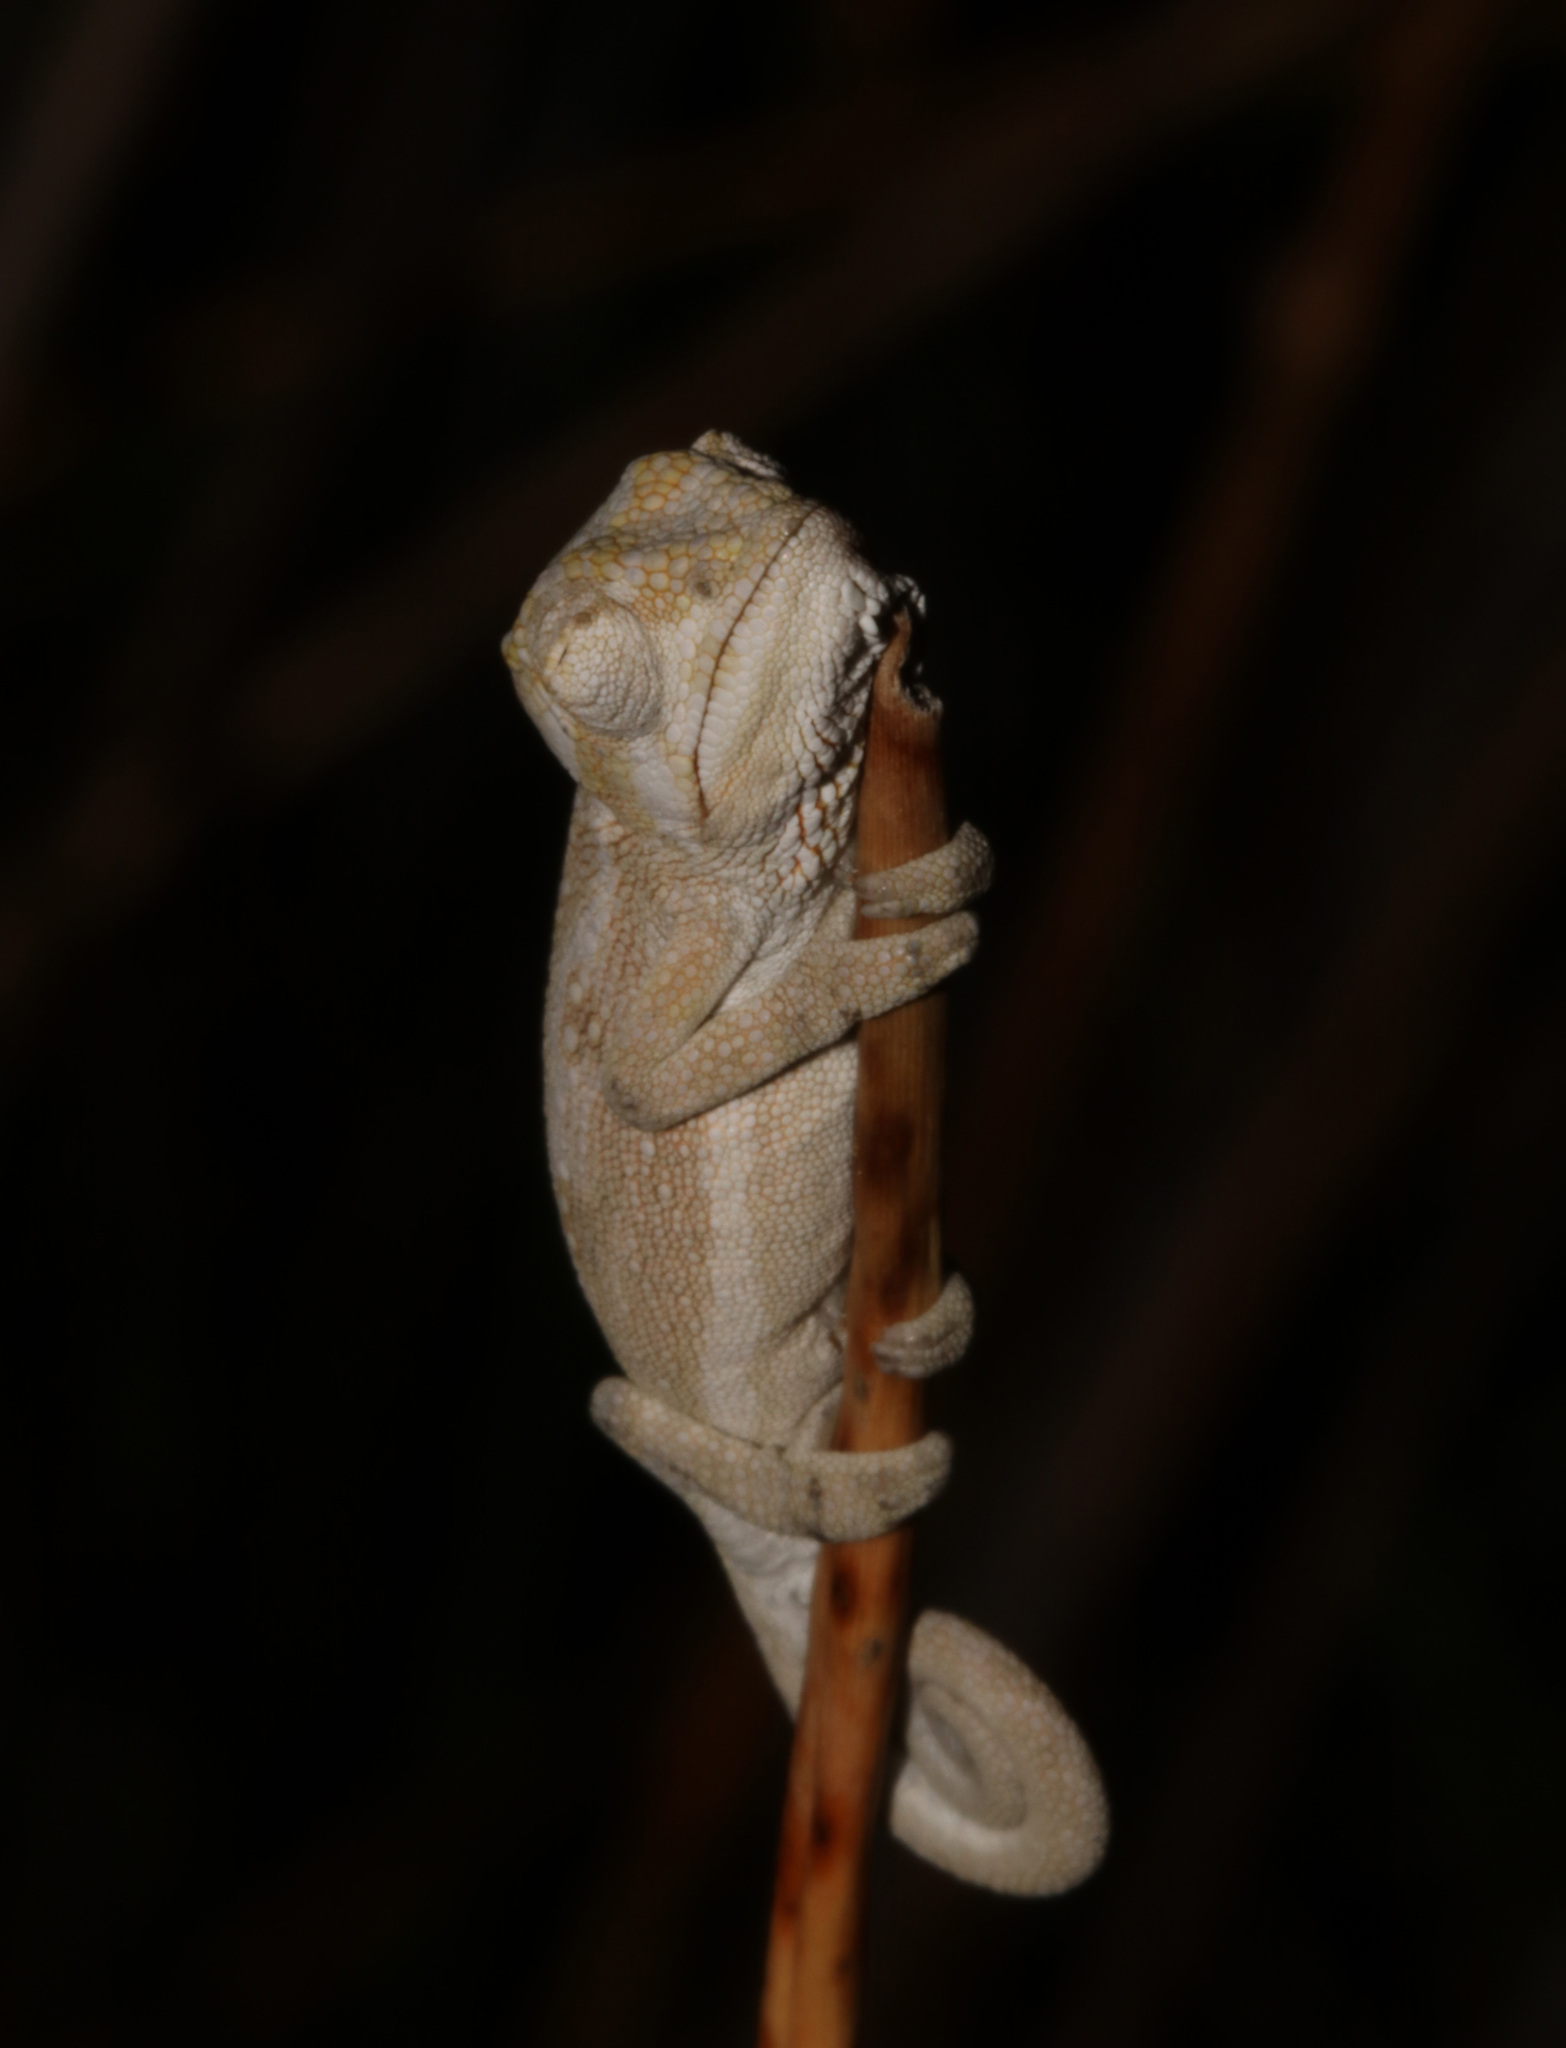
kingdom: Animalia
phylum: Chordata
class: Squamata
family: Chamaeleonidae
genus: Bradypodion
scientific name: Bradypodion pumilum
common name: Cape dwarf chameleon
